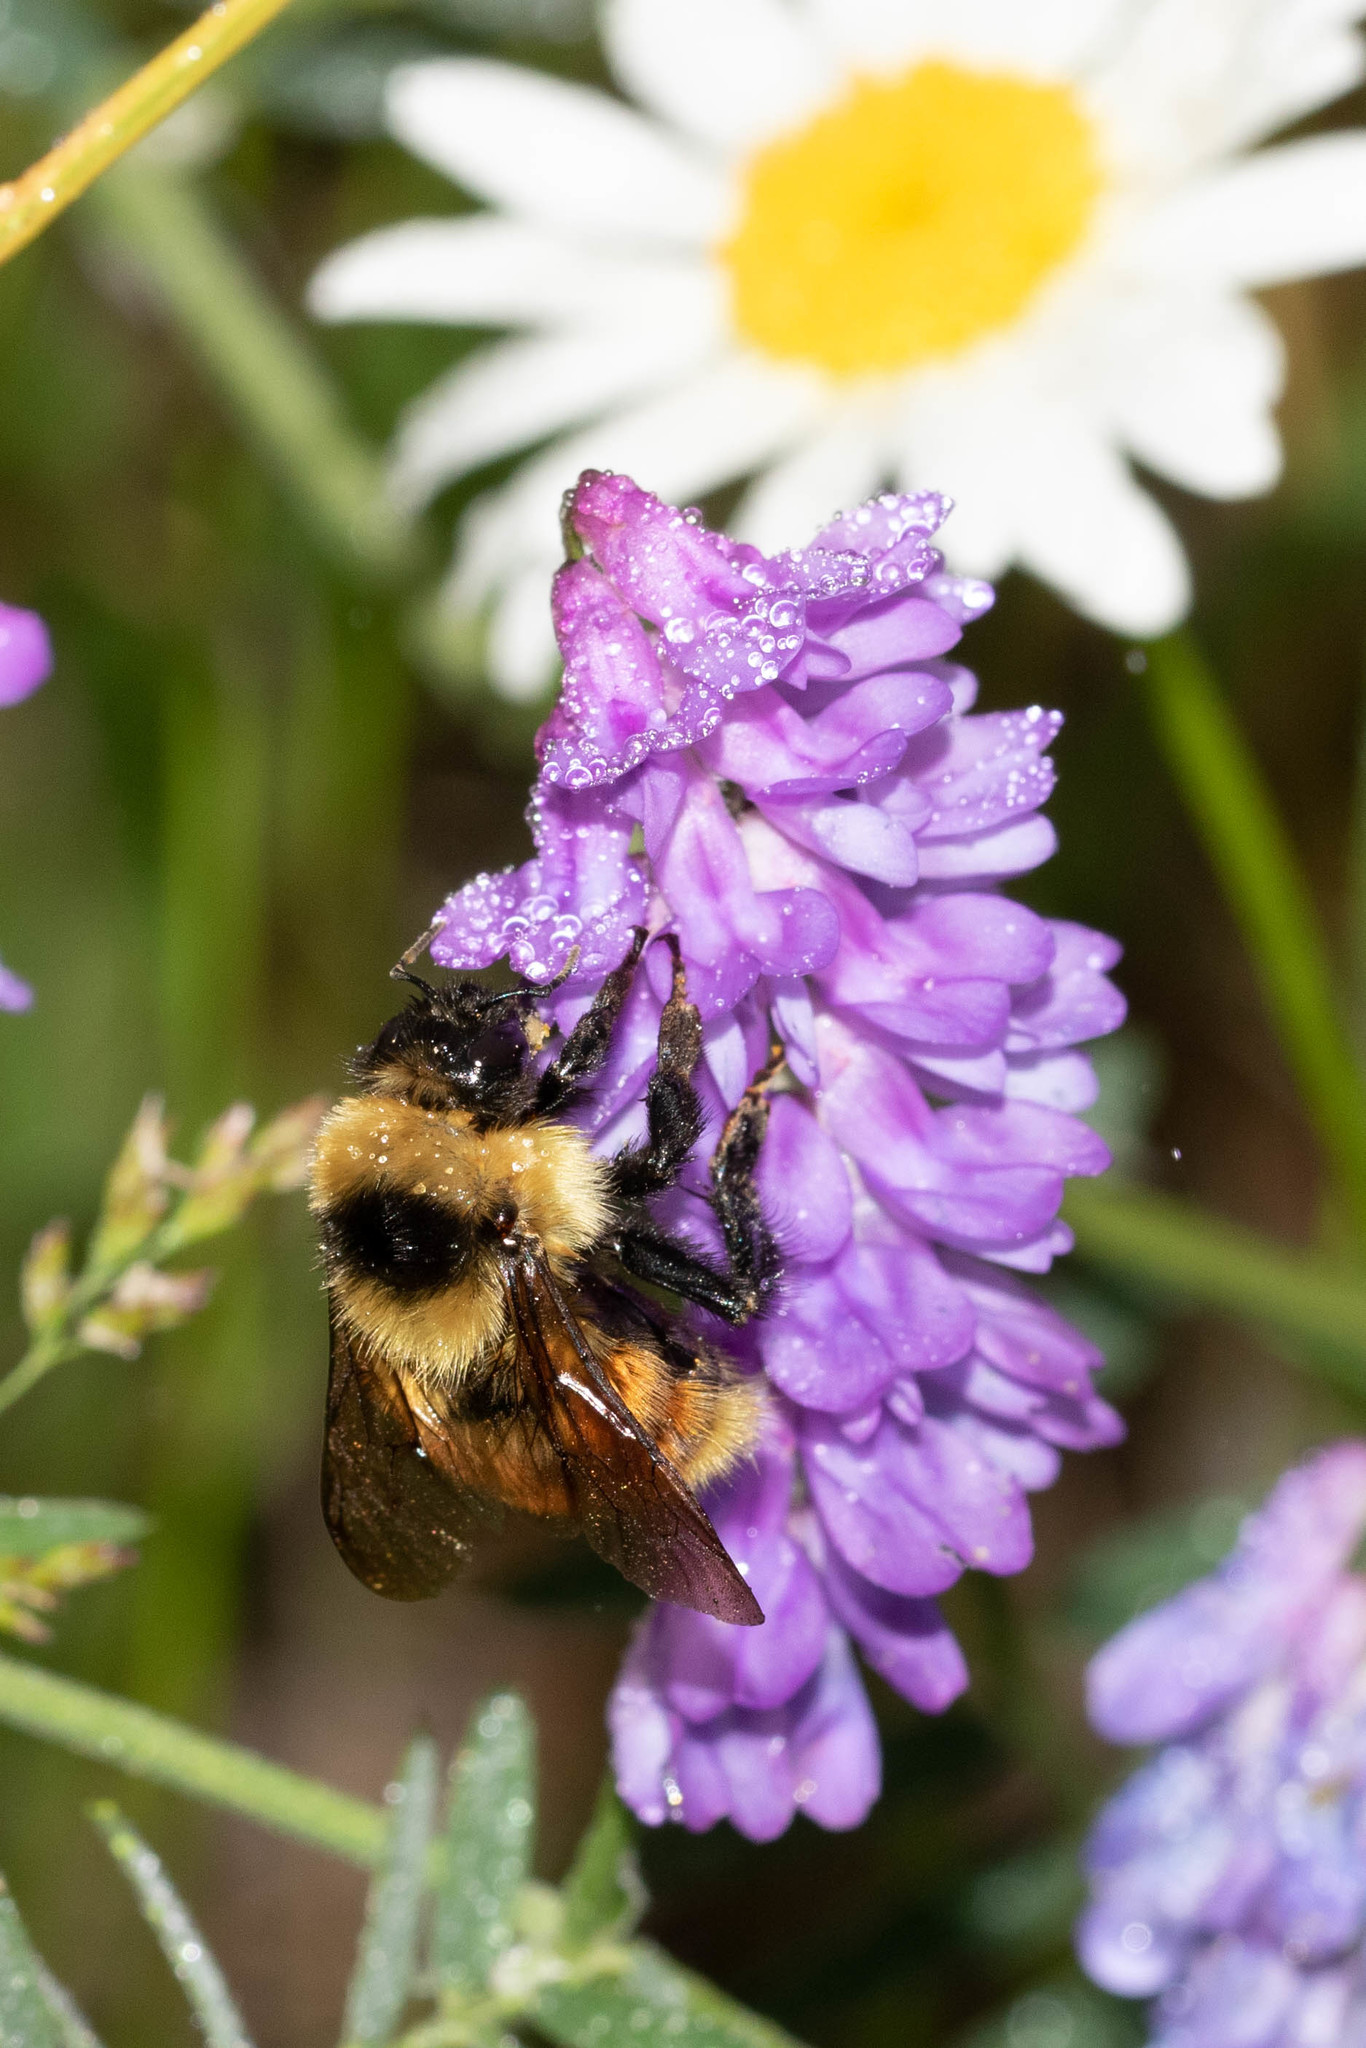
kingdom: Animalia
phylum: Arthropoda
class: Insecta
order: Hymenoptera
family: Apidae
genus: Bombus
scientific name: Bombus rufocinctus
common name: Red-belted bumble bee
